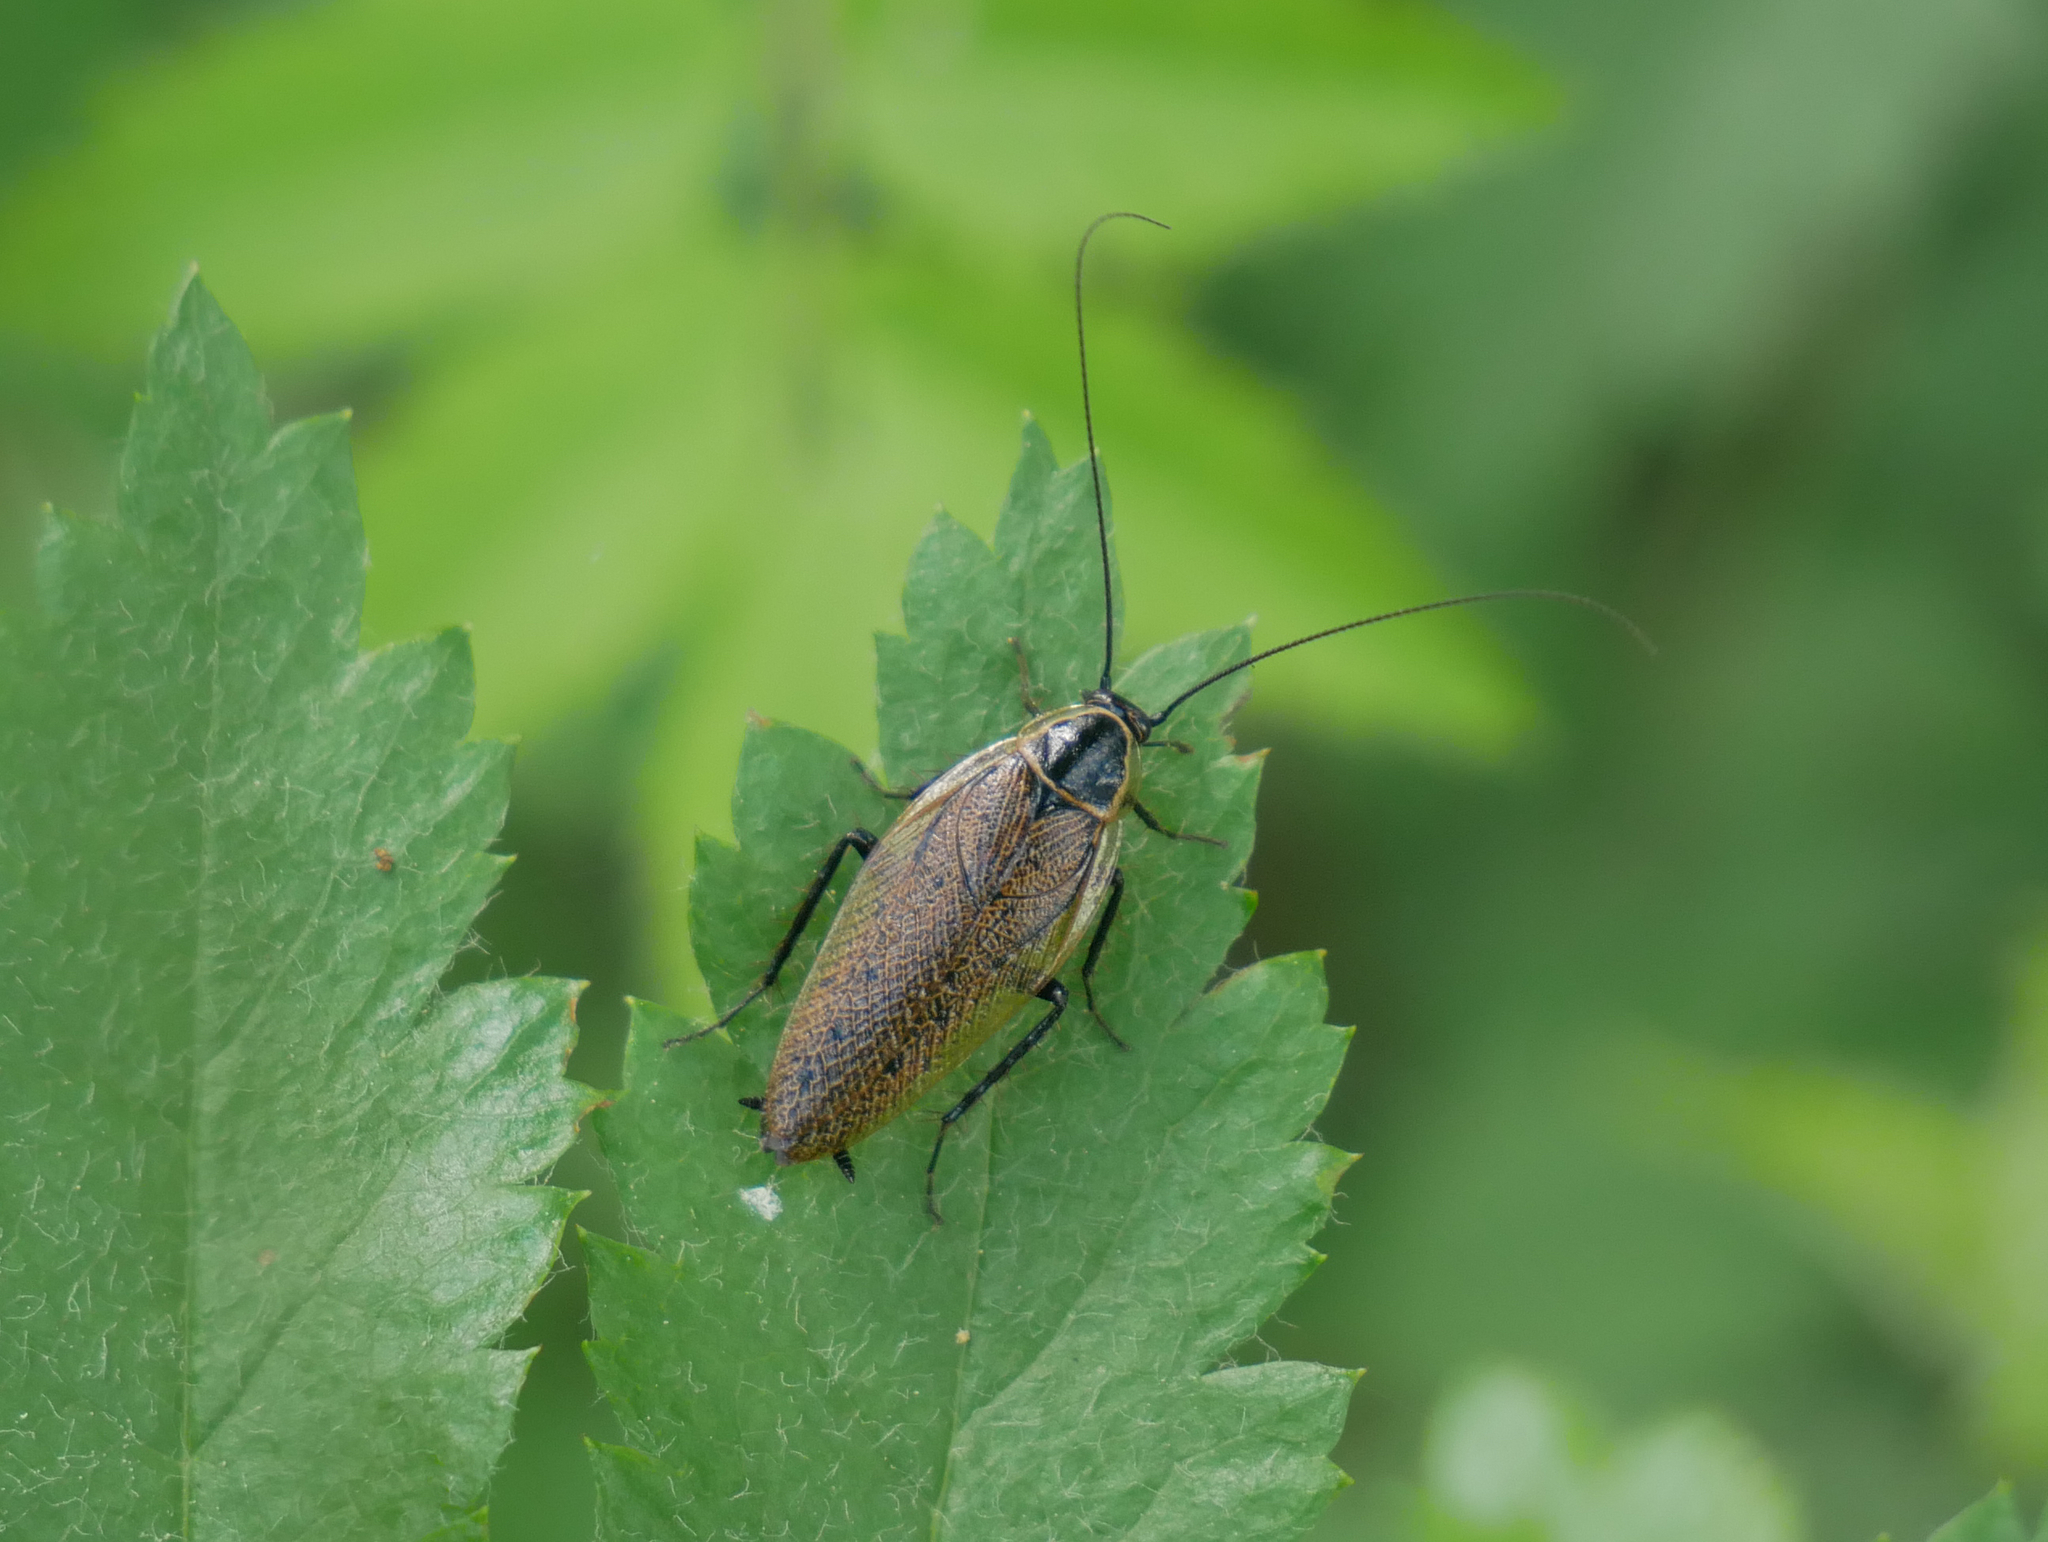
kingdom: Animalia
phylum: Arthropoda
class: Insecta
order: Blattodea
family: Ectobiidae
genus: Ectobius
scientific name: Ectobius sylvestris
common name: Forest cockroach
